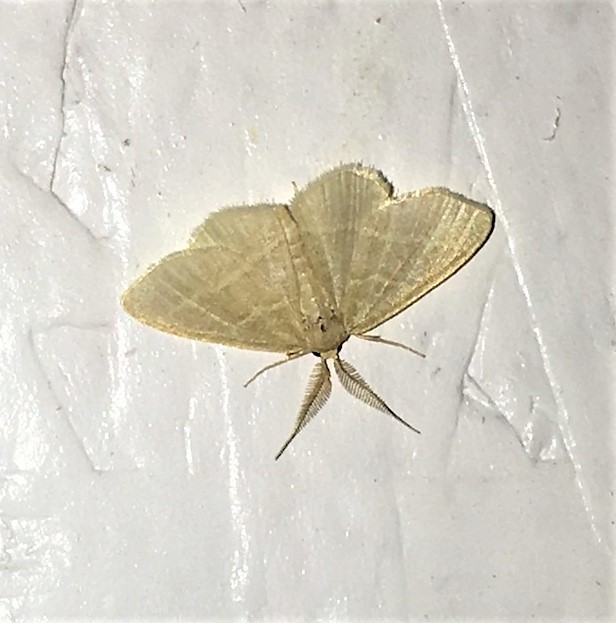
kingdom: Animalia
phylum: Arthropoda
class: Insecta
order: Lepidoptera
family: Geometridae
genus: Chlorochlamys
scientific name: Chlorochlamys chloroleucaria
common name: Blackberry looper
